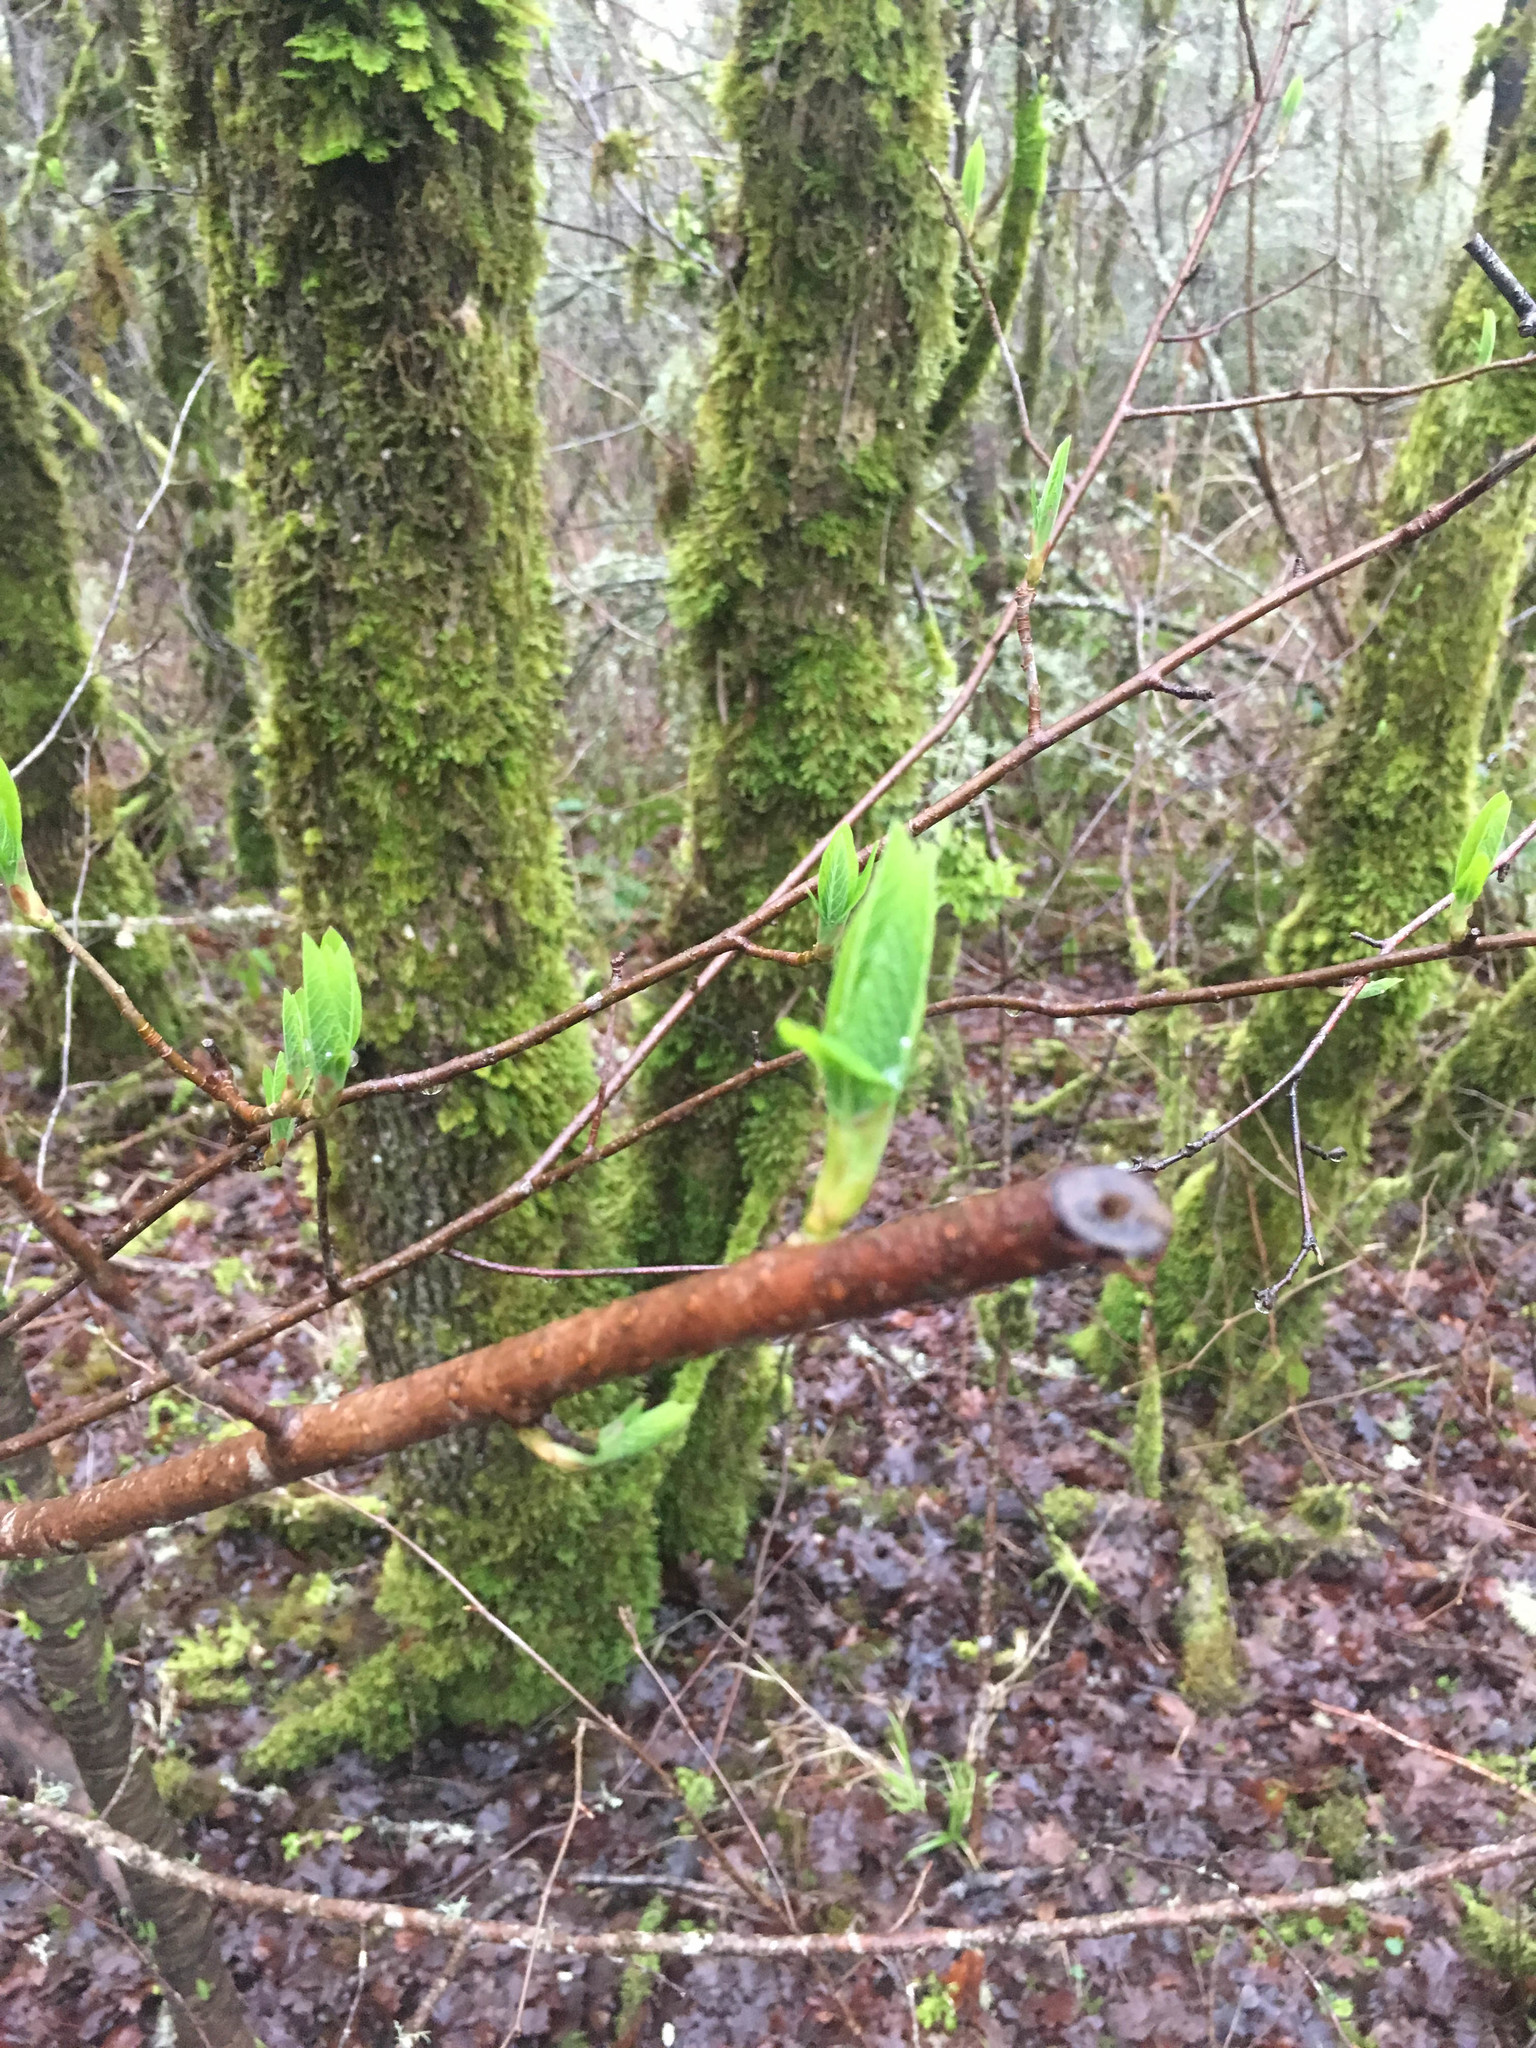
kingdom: Plantae
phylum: Tracheophyta
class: Magnoliopsida
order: Rosales
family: Rosaceae
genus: Oemleria
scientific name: Oemleria cerasiformis
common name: Osoberry
